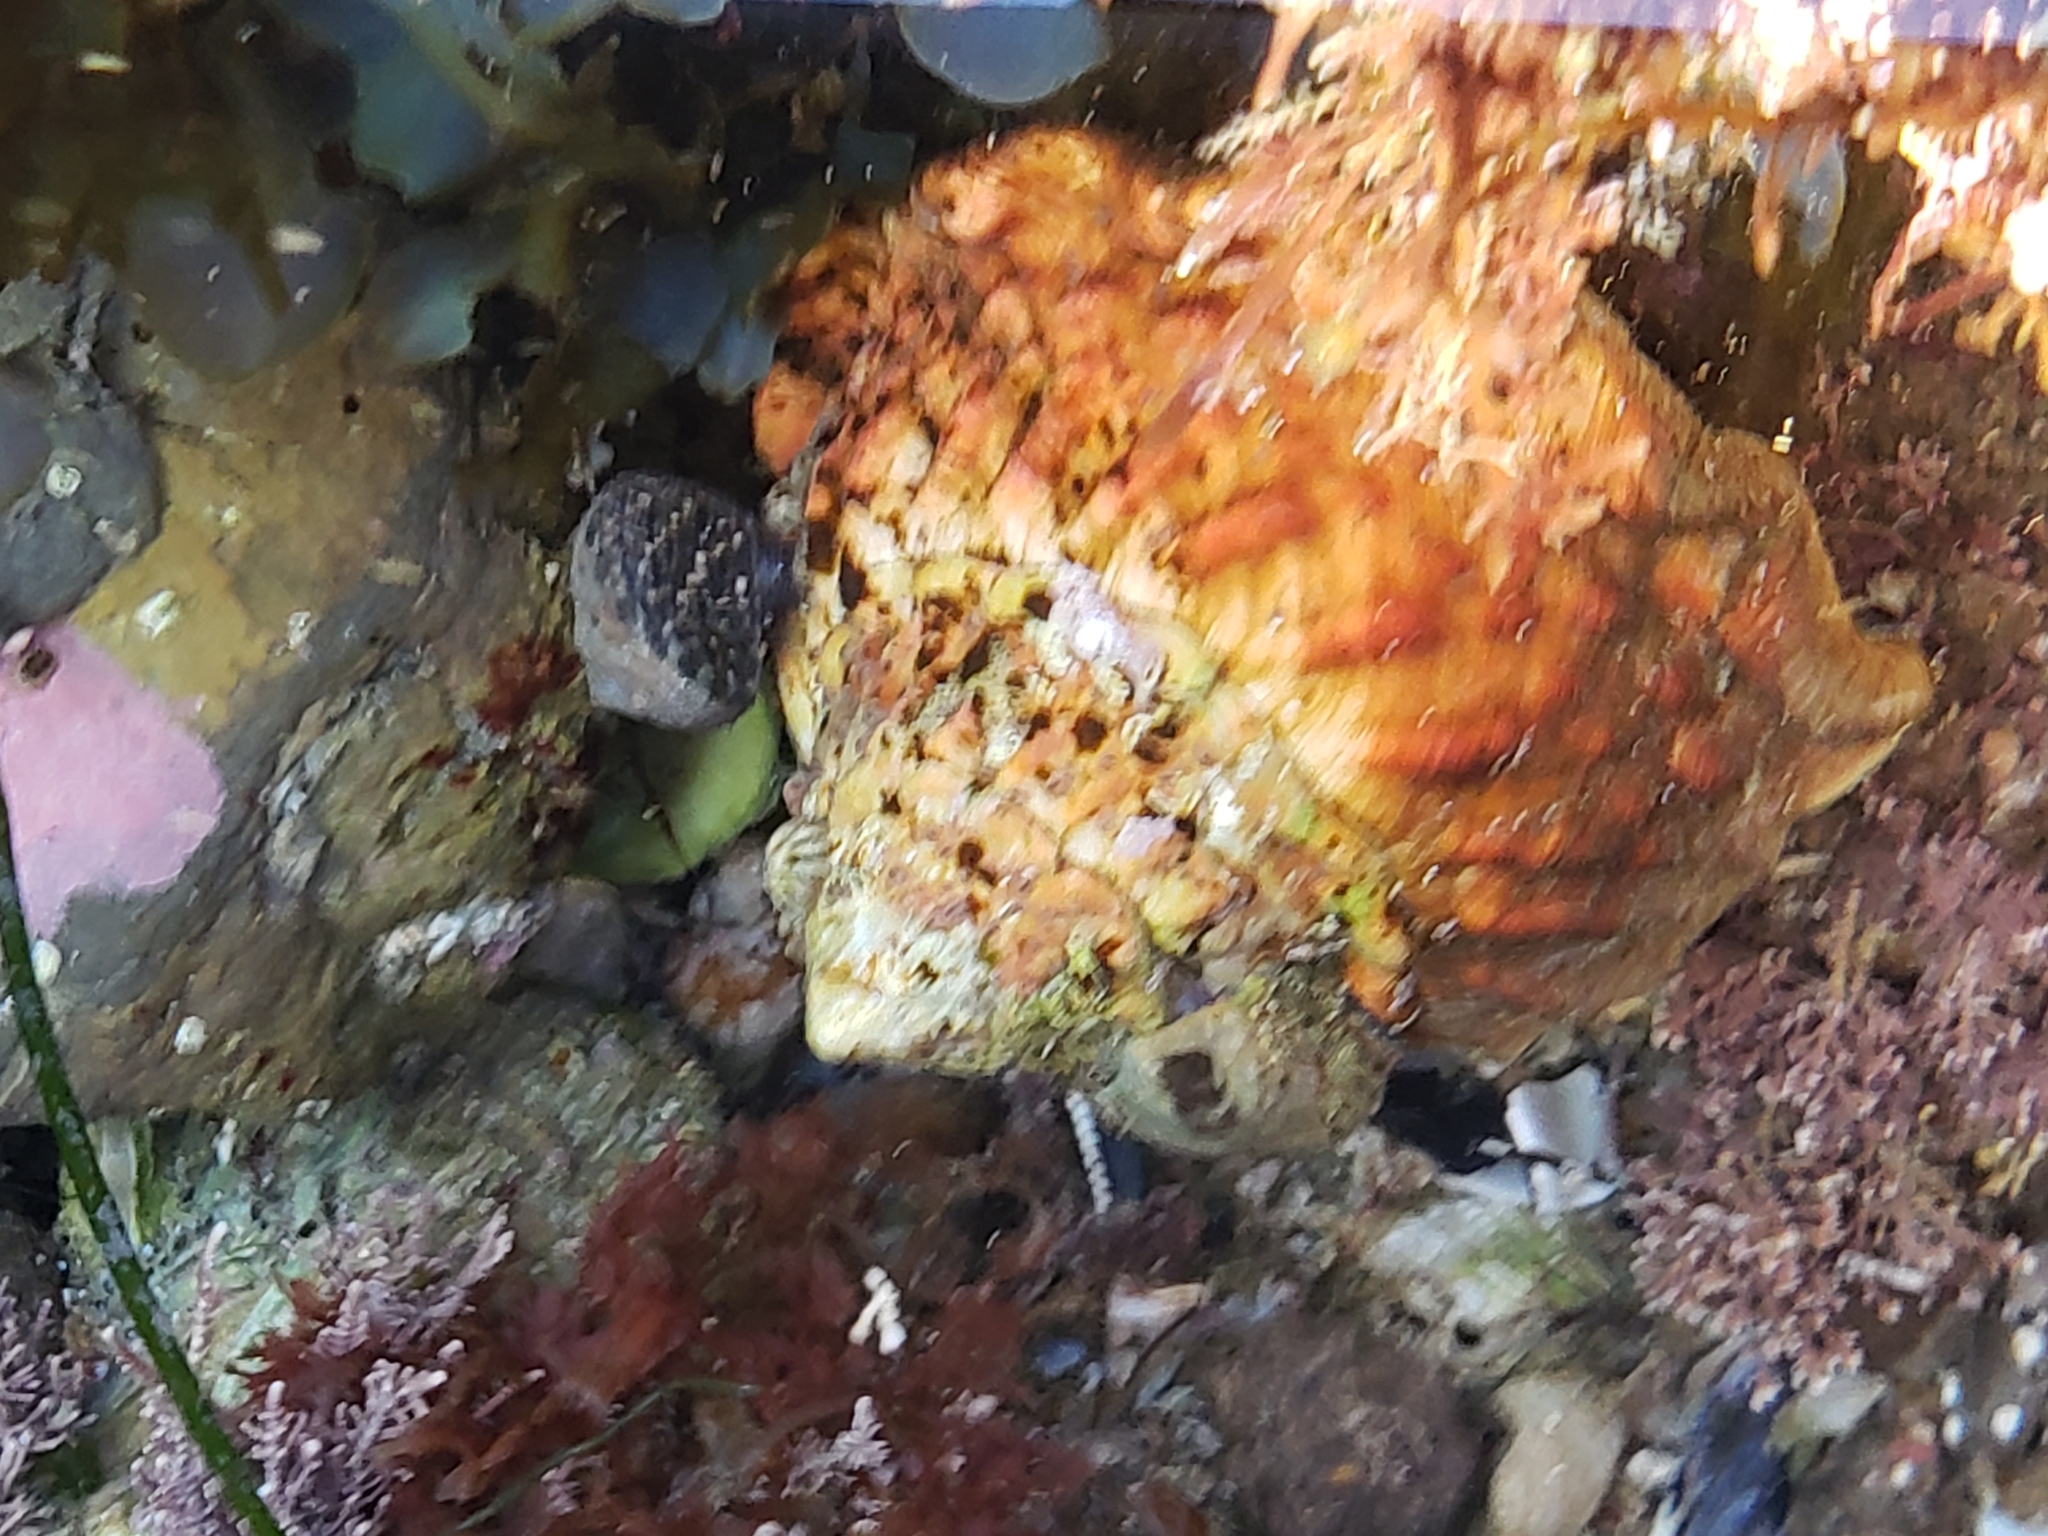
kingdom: Animalia
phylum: Mollusca
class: Gastropoda
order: Trochida
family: Turbinidae
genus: Megastraea
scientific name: Megastraea undosa
